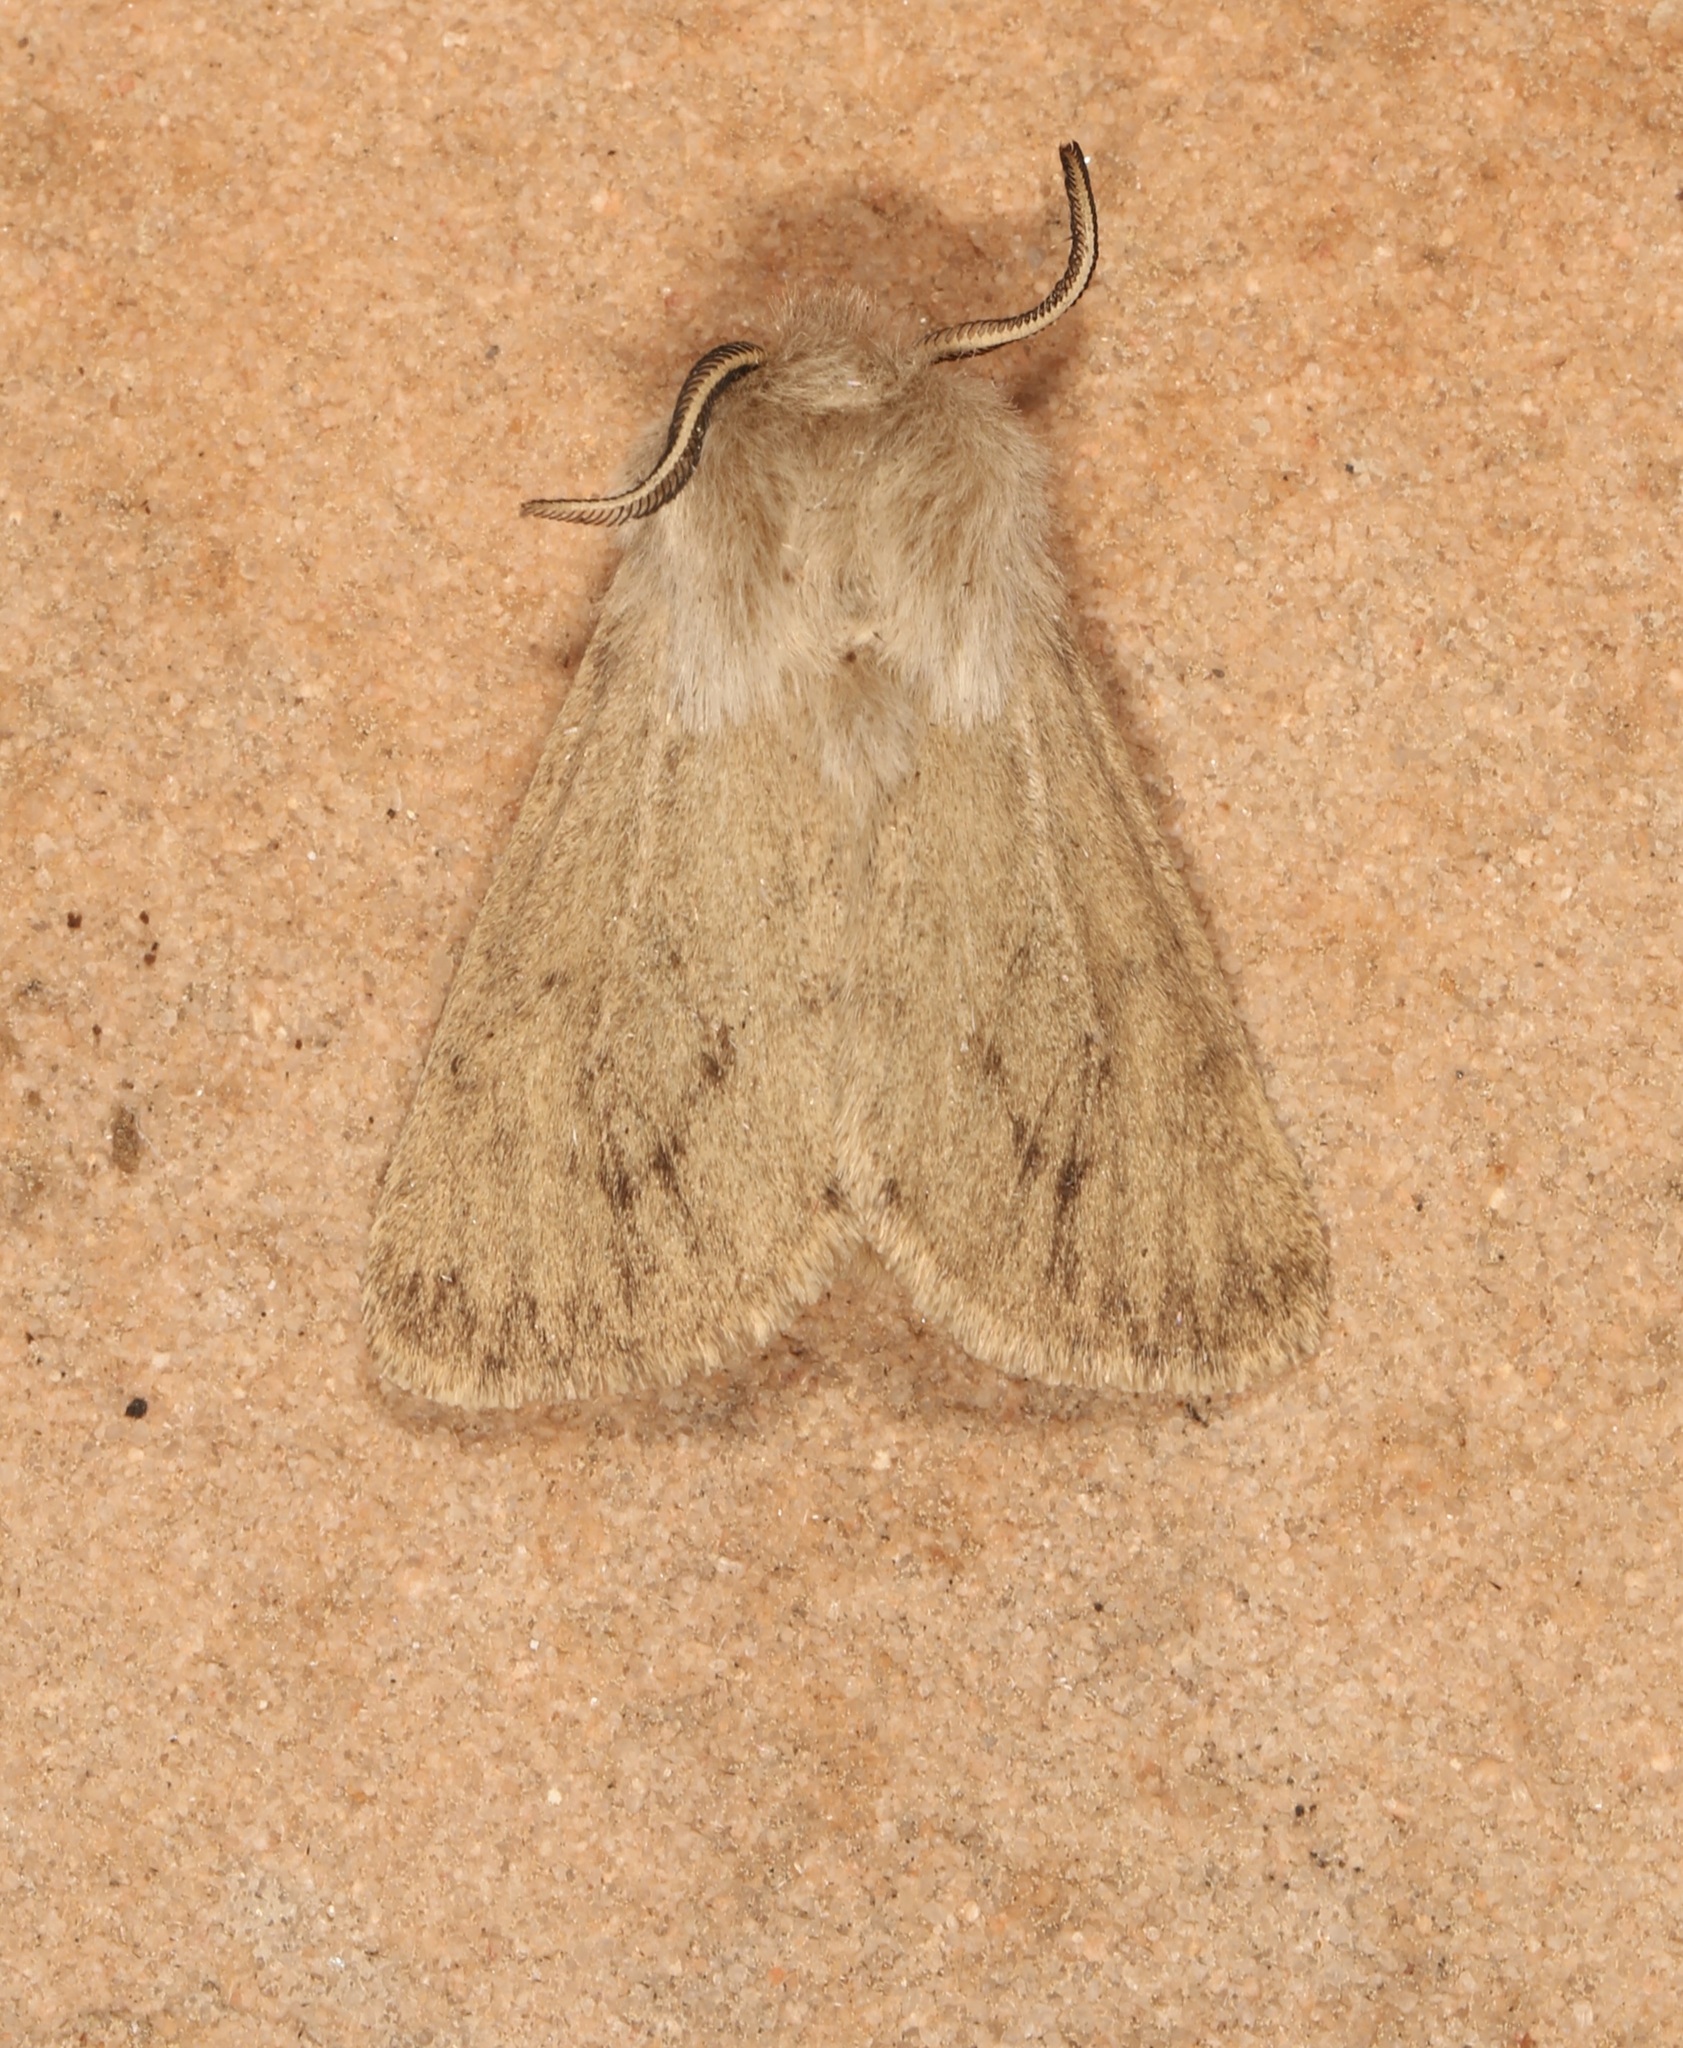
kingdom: Animalia
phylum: Arthropoda
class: Insecta
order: Lepidoptera
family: Erebidae
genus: Spilosoma
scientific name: Spilosoma vagans
